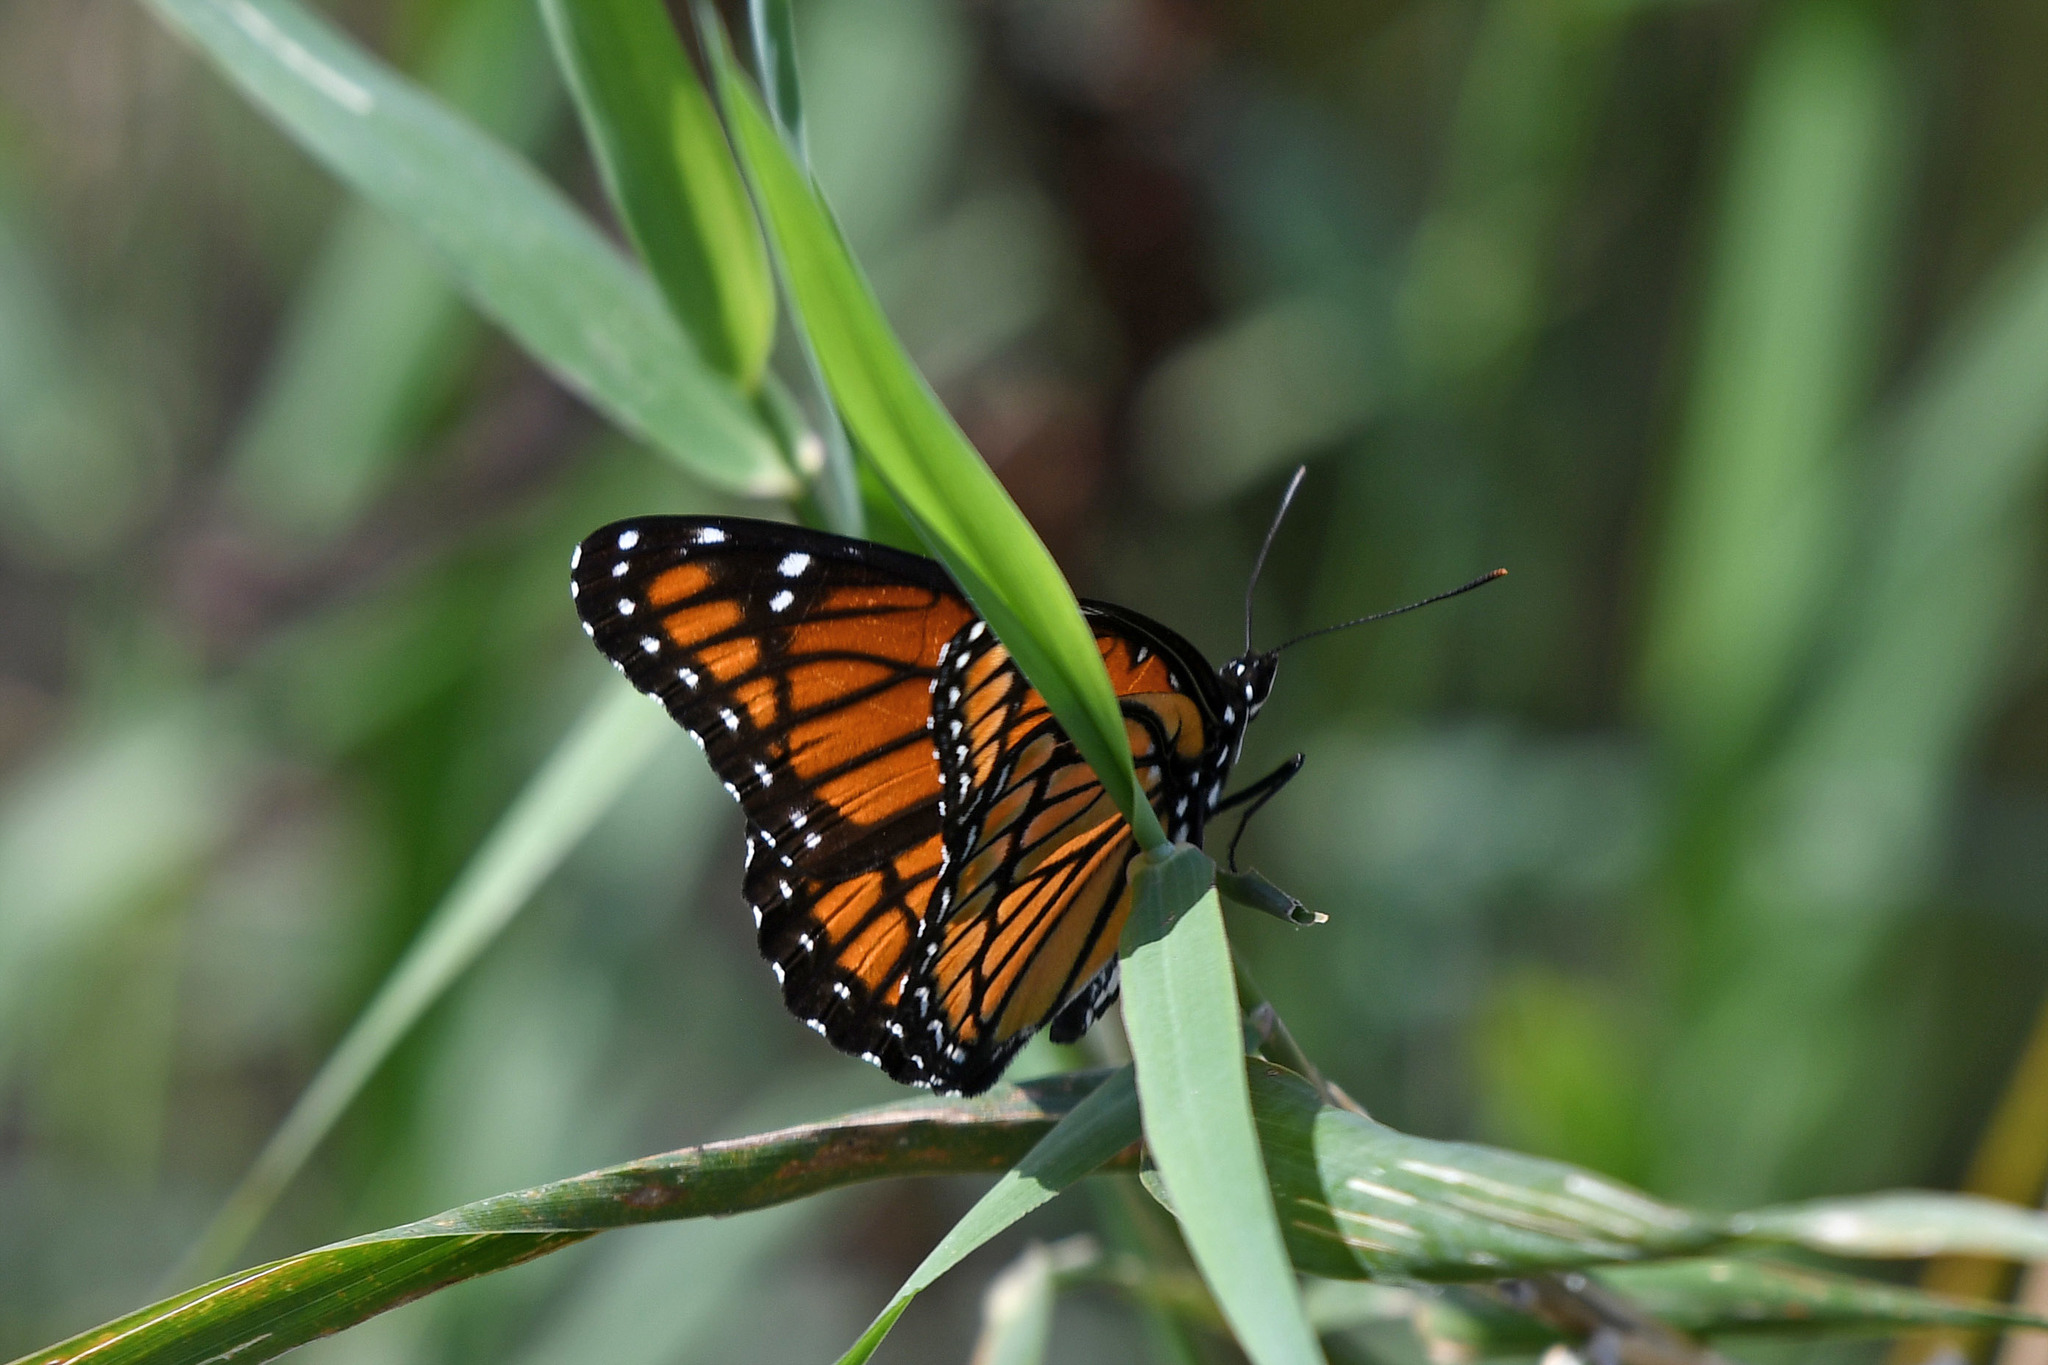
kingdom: Animalia
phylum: Arthropoda
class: Insecta
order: Lepidoptera
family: Nymphalidae
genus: Limenitis
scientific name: Limenitis archippus
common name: Viceroy
